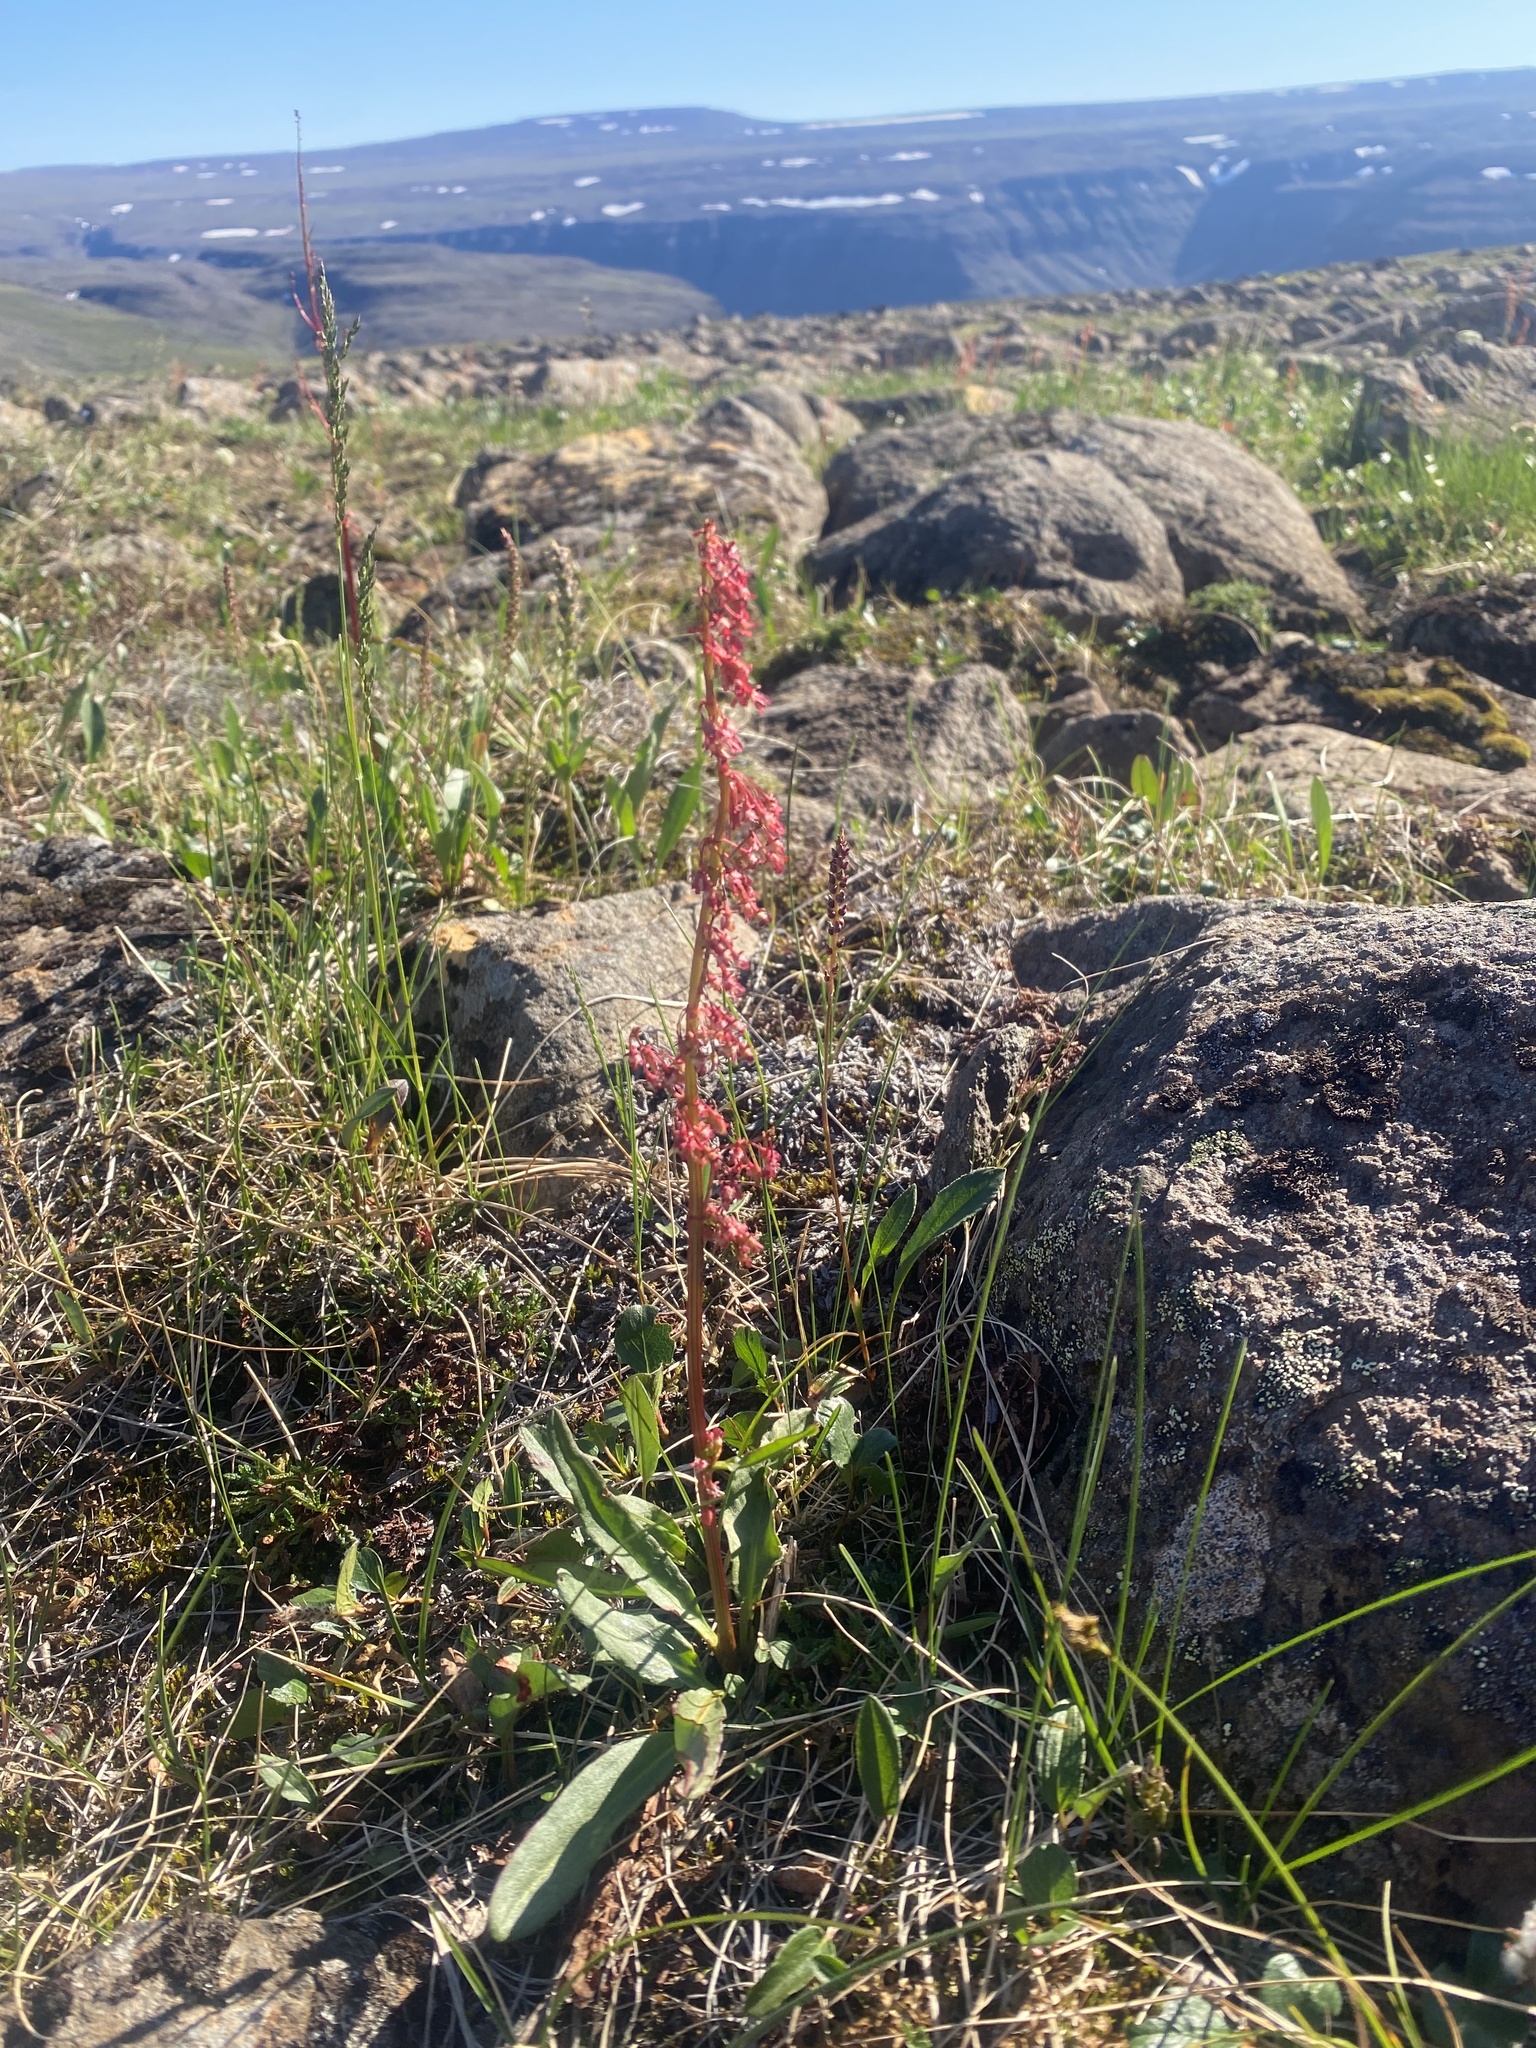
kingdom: Plantae
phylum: Tracheophyta
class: Magnoliopsida
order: Caryophyllales
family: Polygonaceae
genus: Rumex
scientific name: Rumex arcticus
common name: Arctic dock
